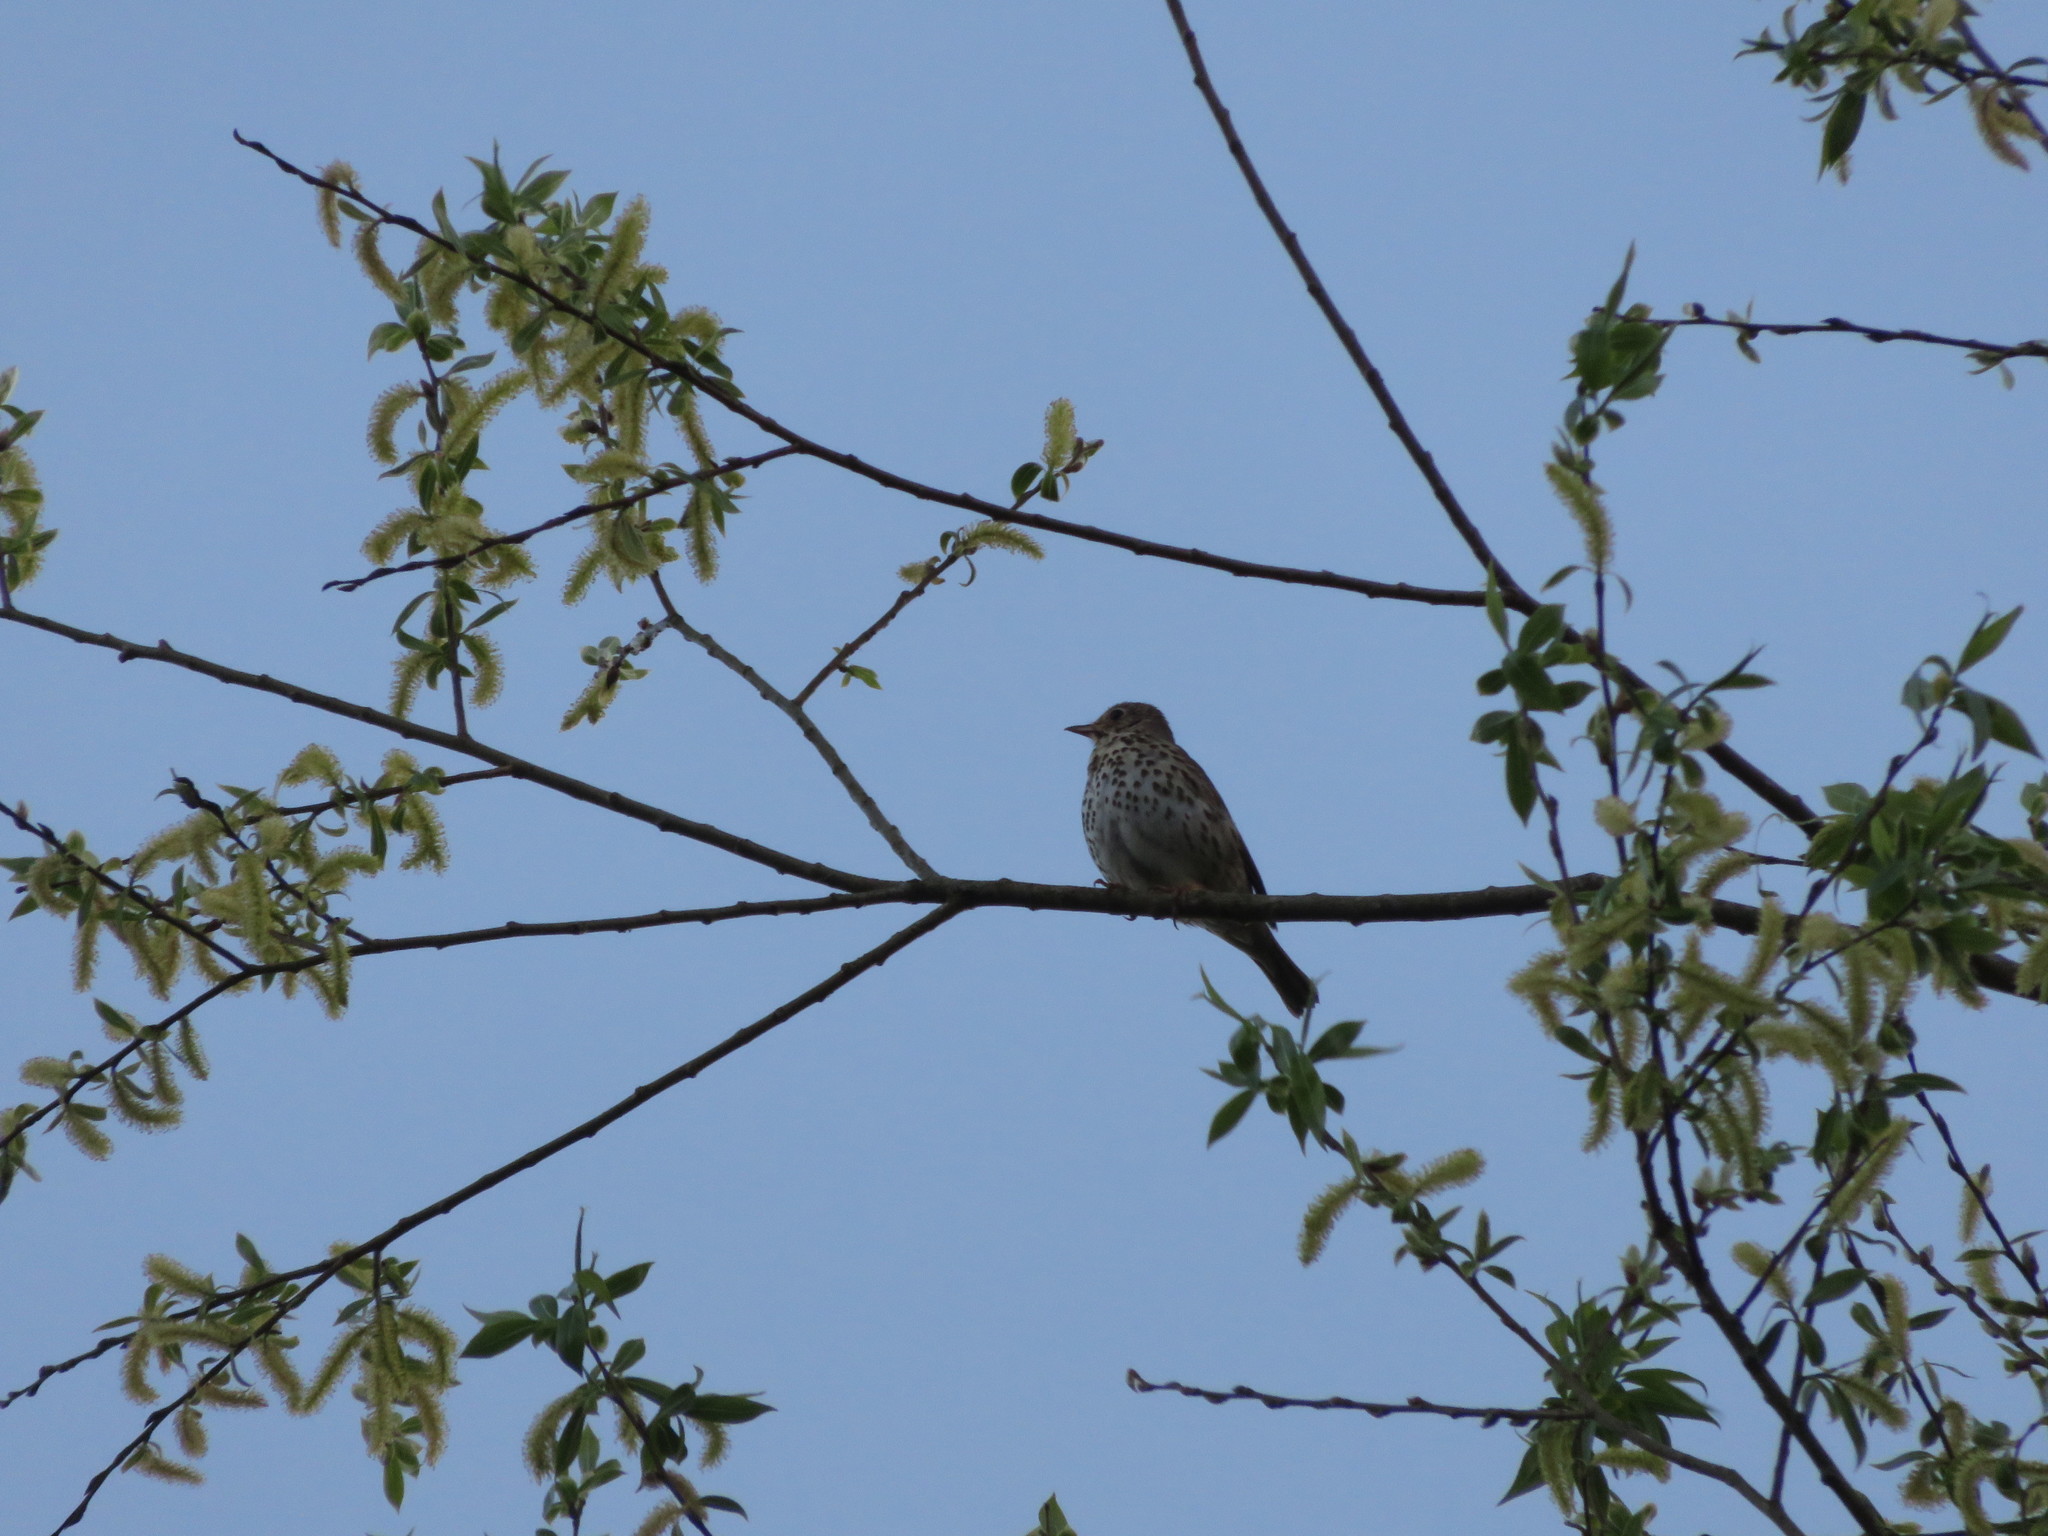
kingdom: Animalia
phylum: Chordata
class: Aves
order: Passeriformes
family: Turdidae
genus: Turdus
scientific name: Turdus philomelos
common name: Song thrush
